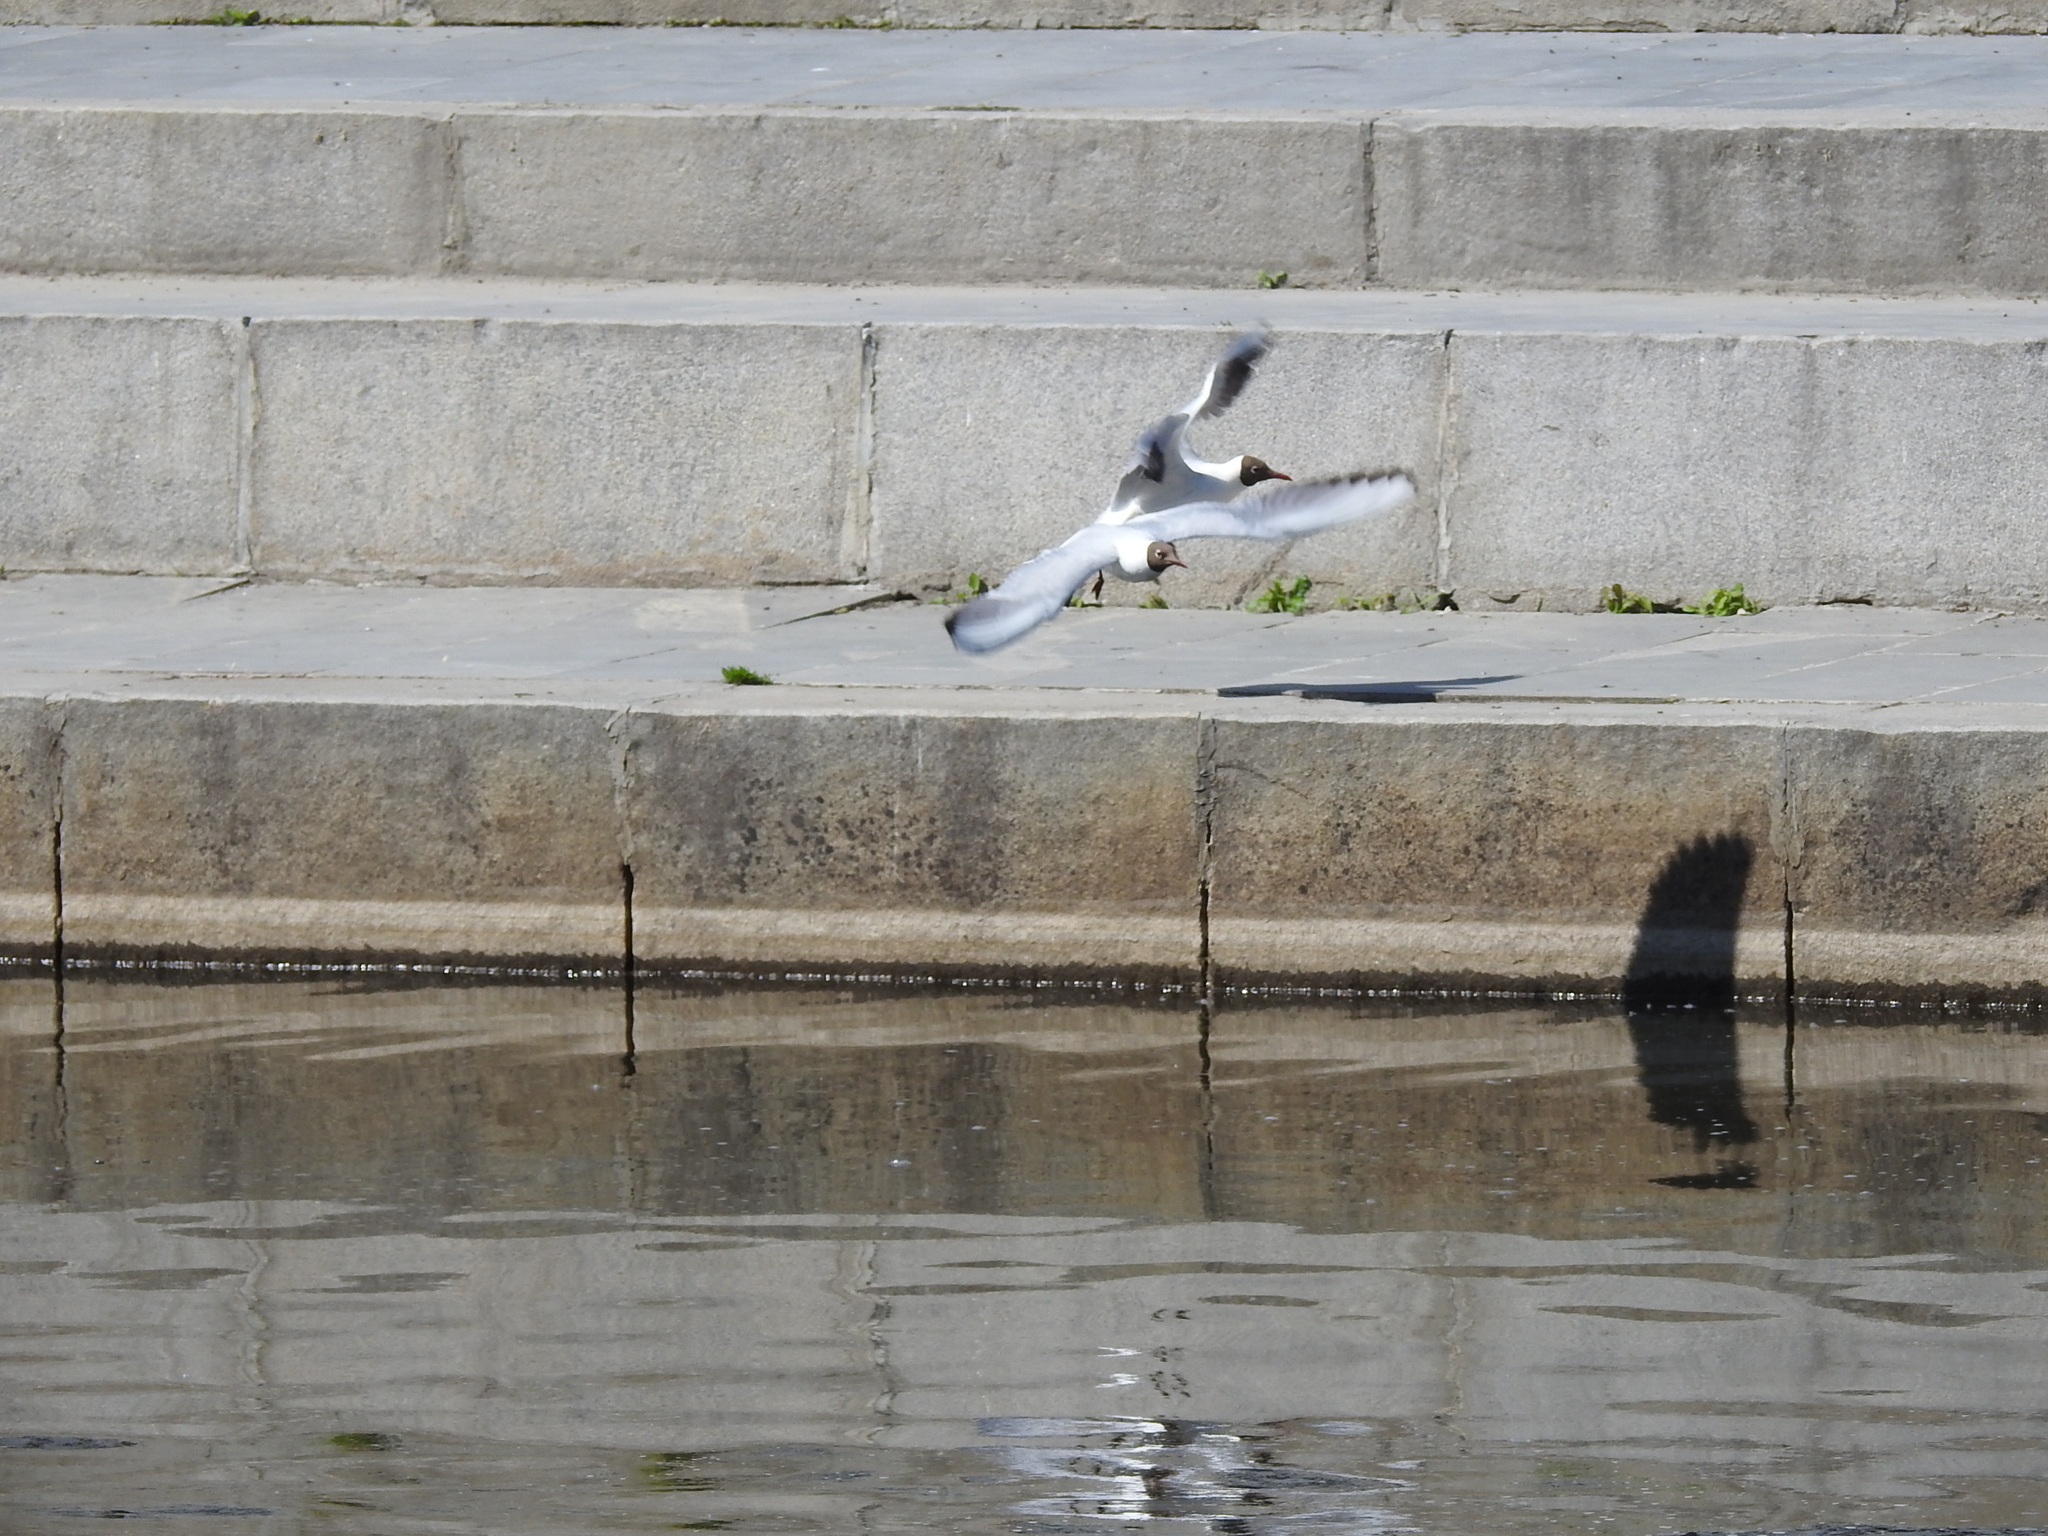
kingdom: Animalia
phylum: Chordata
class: Aves
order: Charadriiformes
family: Laridae
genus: Chroicocephalus
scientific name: Chroicocephalus ridibundus
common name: Black-headed gull
